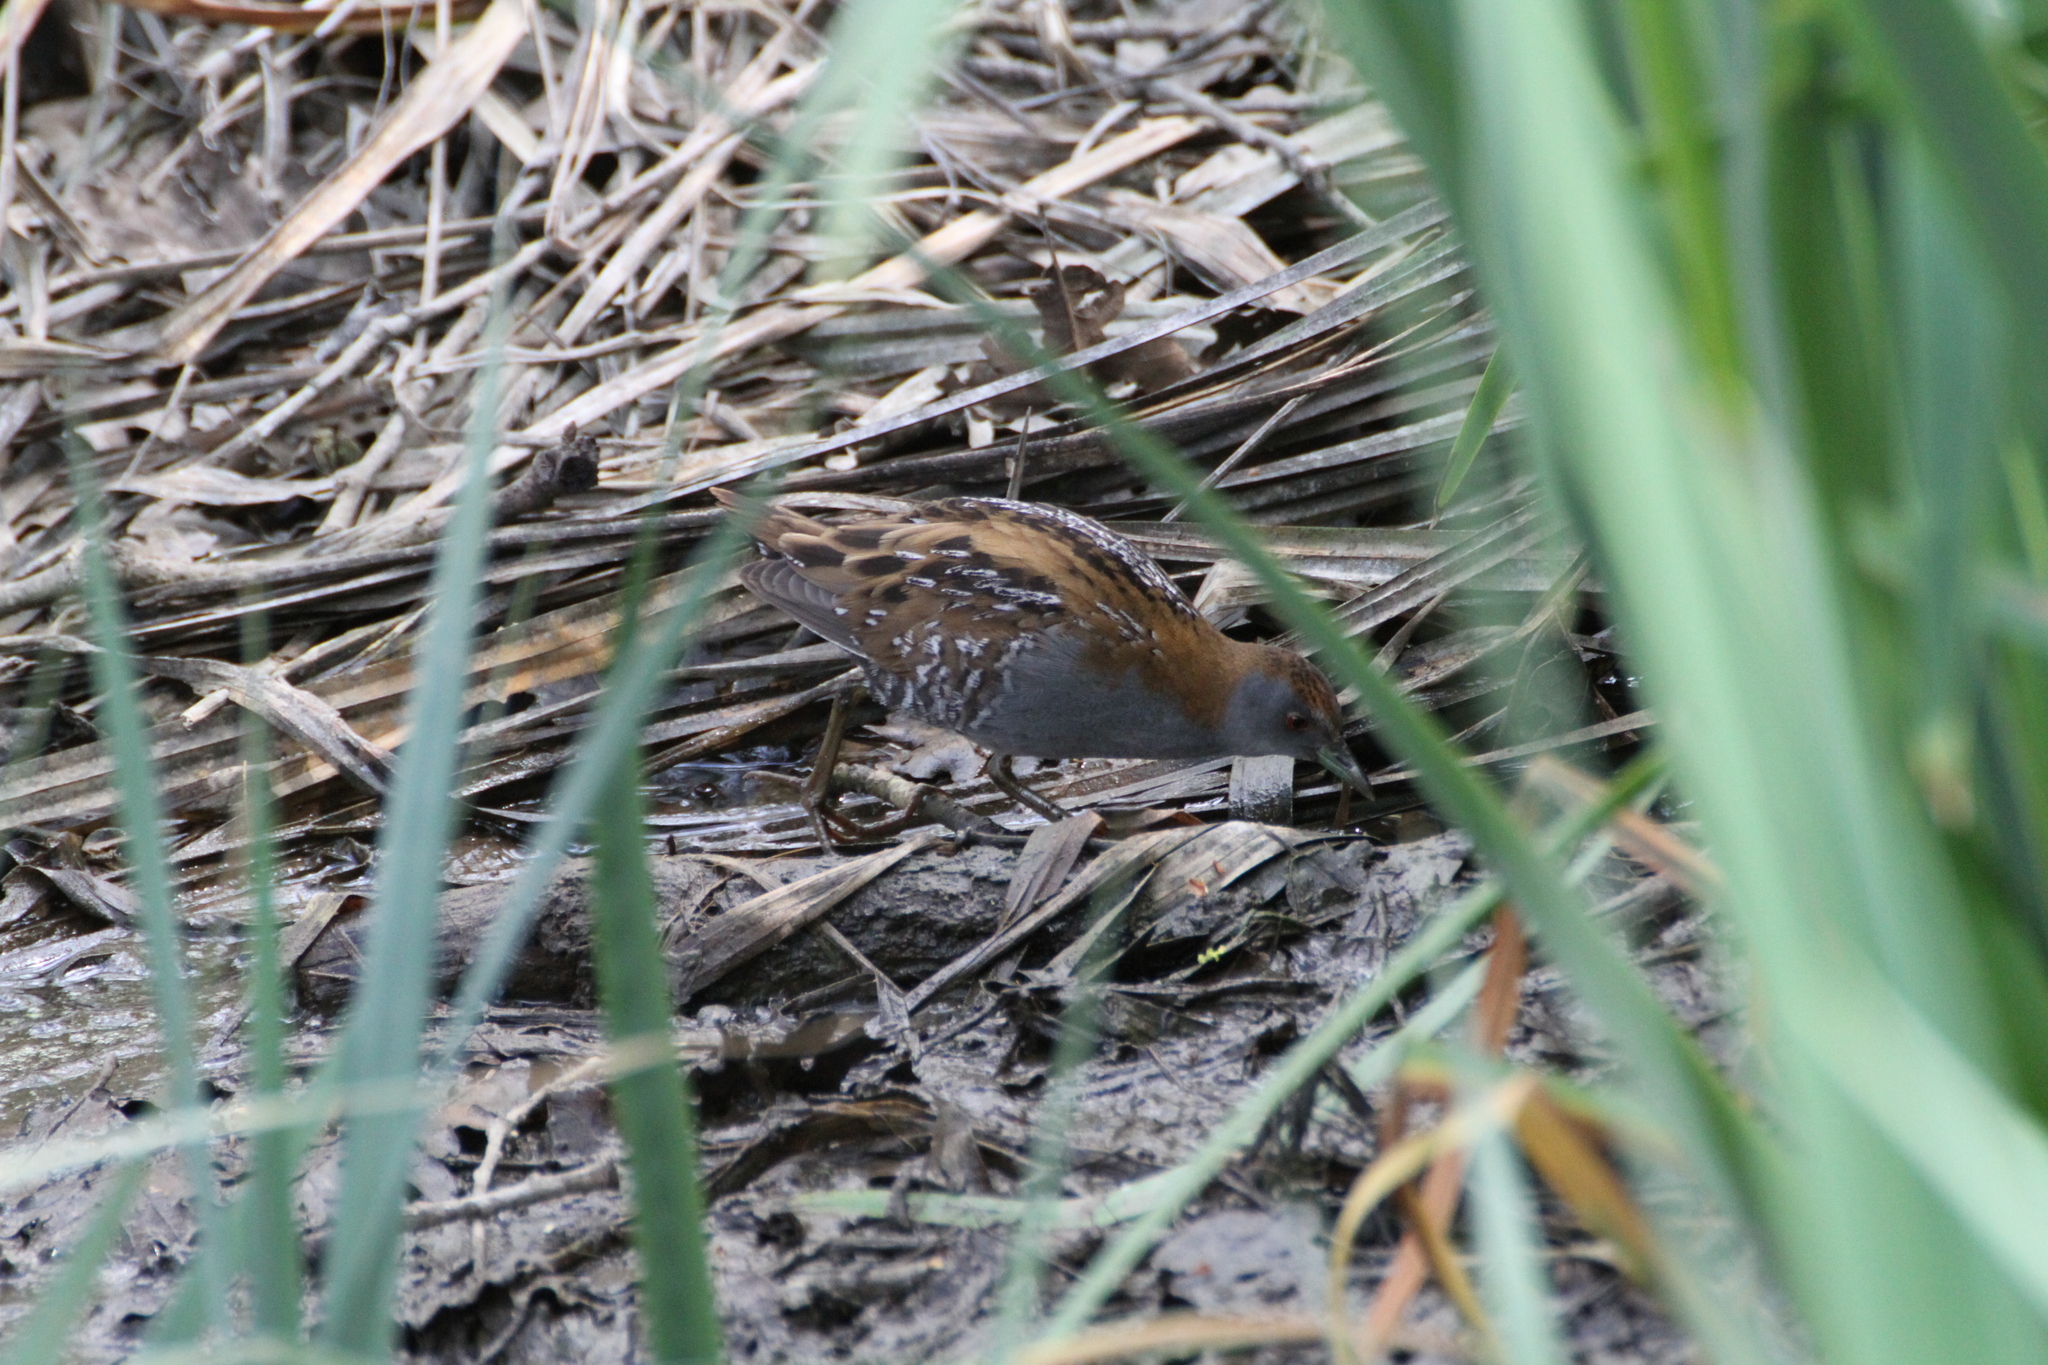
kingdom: Animalia
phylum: Chordata
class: Aves
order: Gruiformes
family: Rallidae
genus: Porzana
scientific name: Porzana pusilla
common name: Baillon's crake
